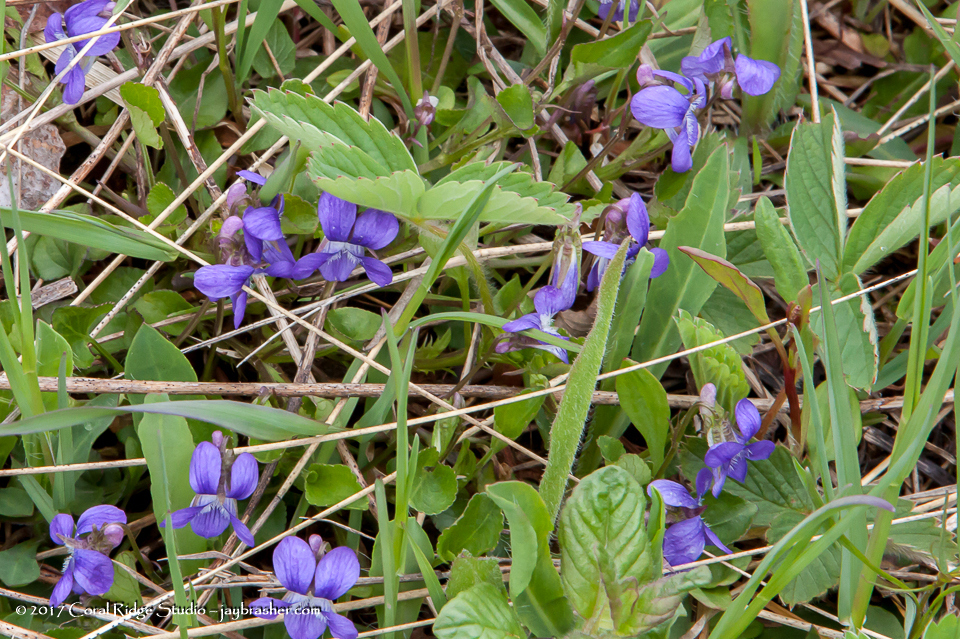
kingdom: Plantae
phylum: Tracheophyta
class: Magnoliopsida
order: Malpighiales
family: Violaceae
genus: Viola
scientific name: Viola nephrophylla
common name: Blue meadow violet
